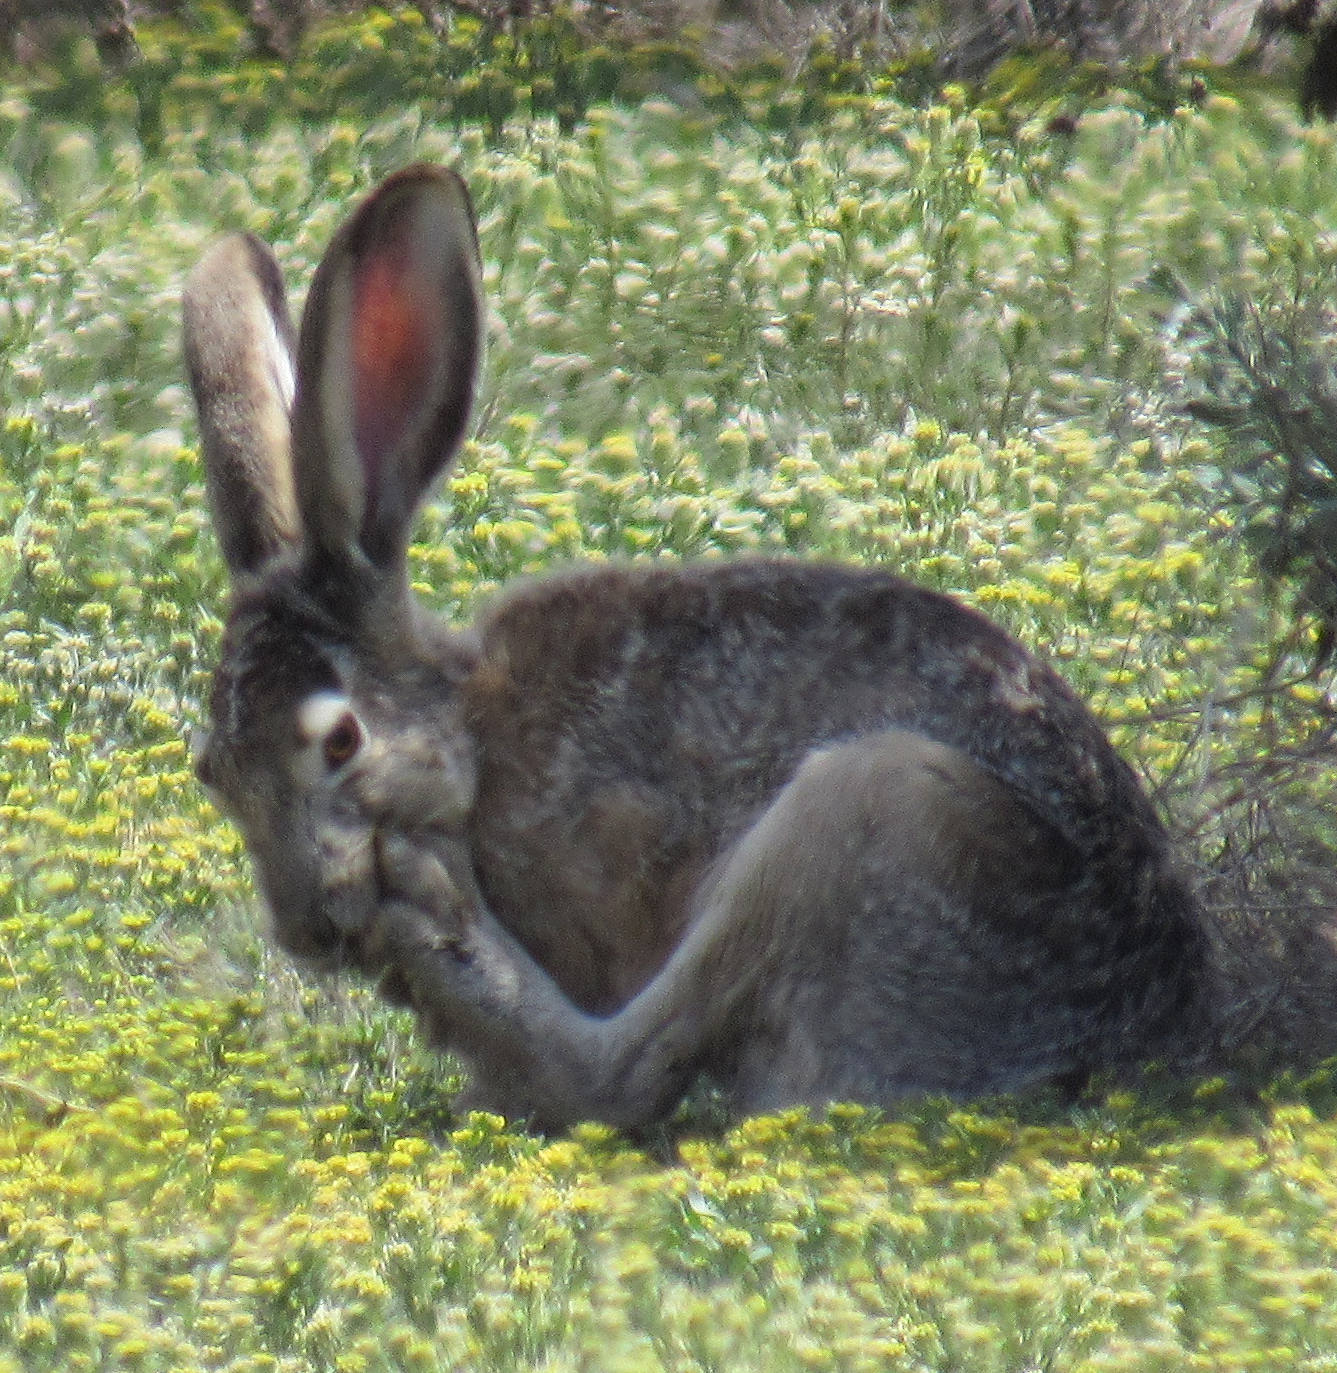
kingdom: Animalia
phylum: Chordata
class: Mammalia
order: Lagomorpha
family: Leporidae
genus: Lepus
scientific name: Lepus californicus
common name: Black-tailed jackrabbit
